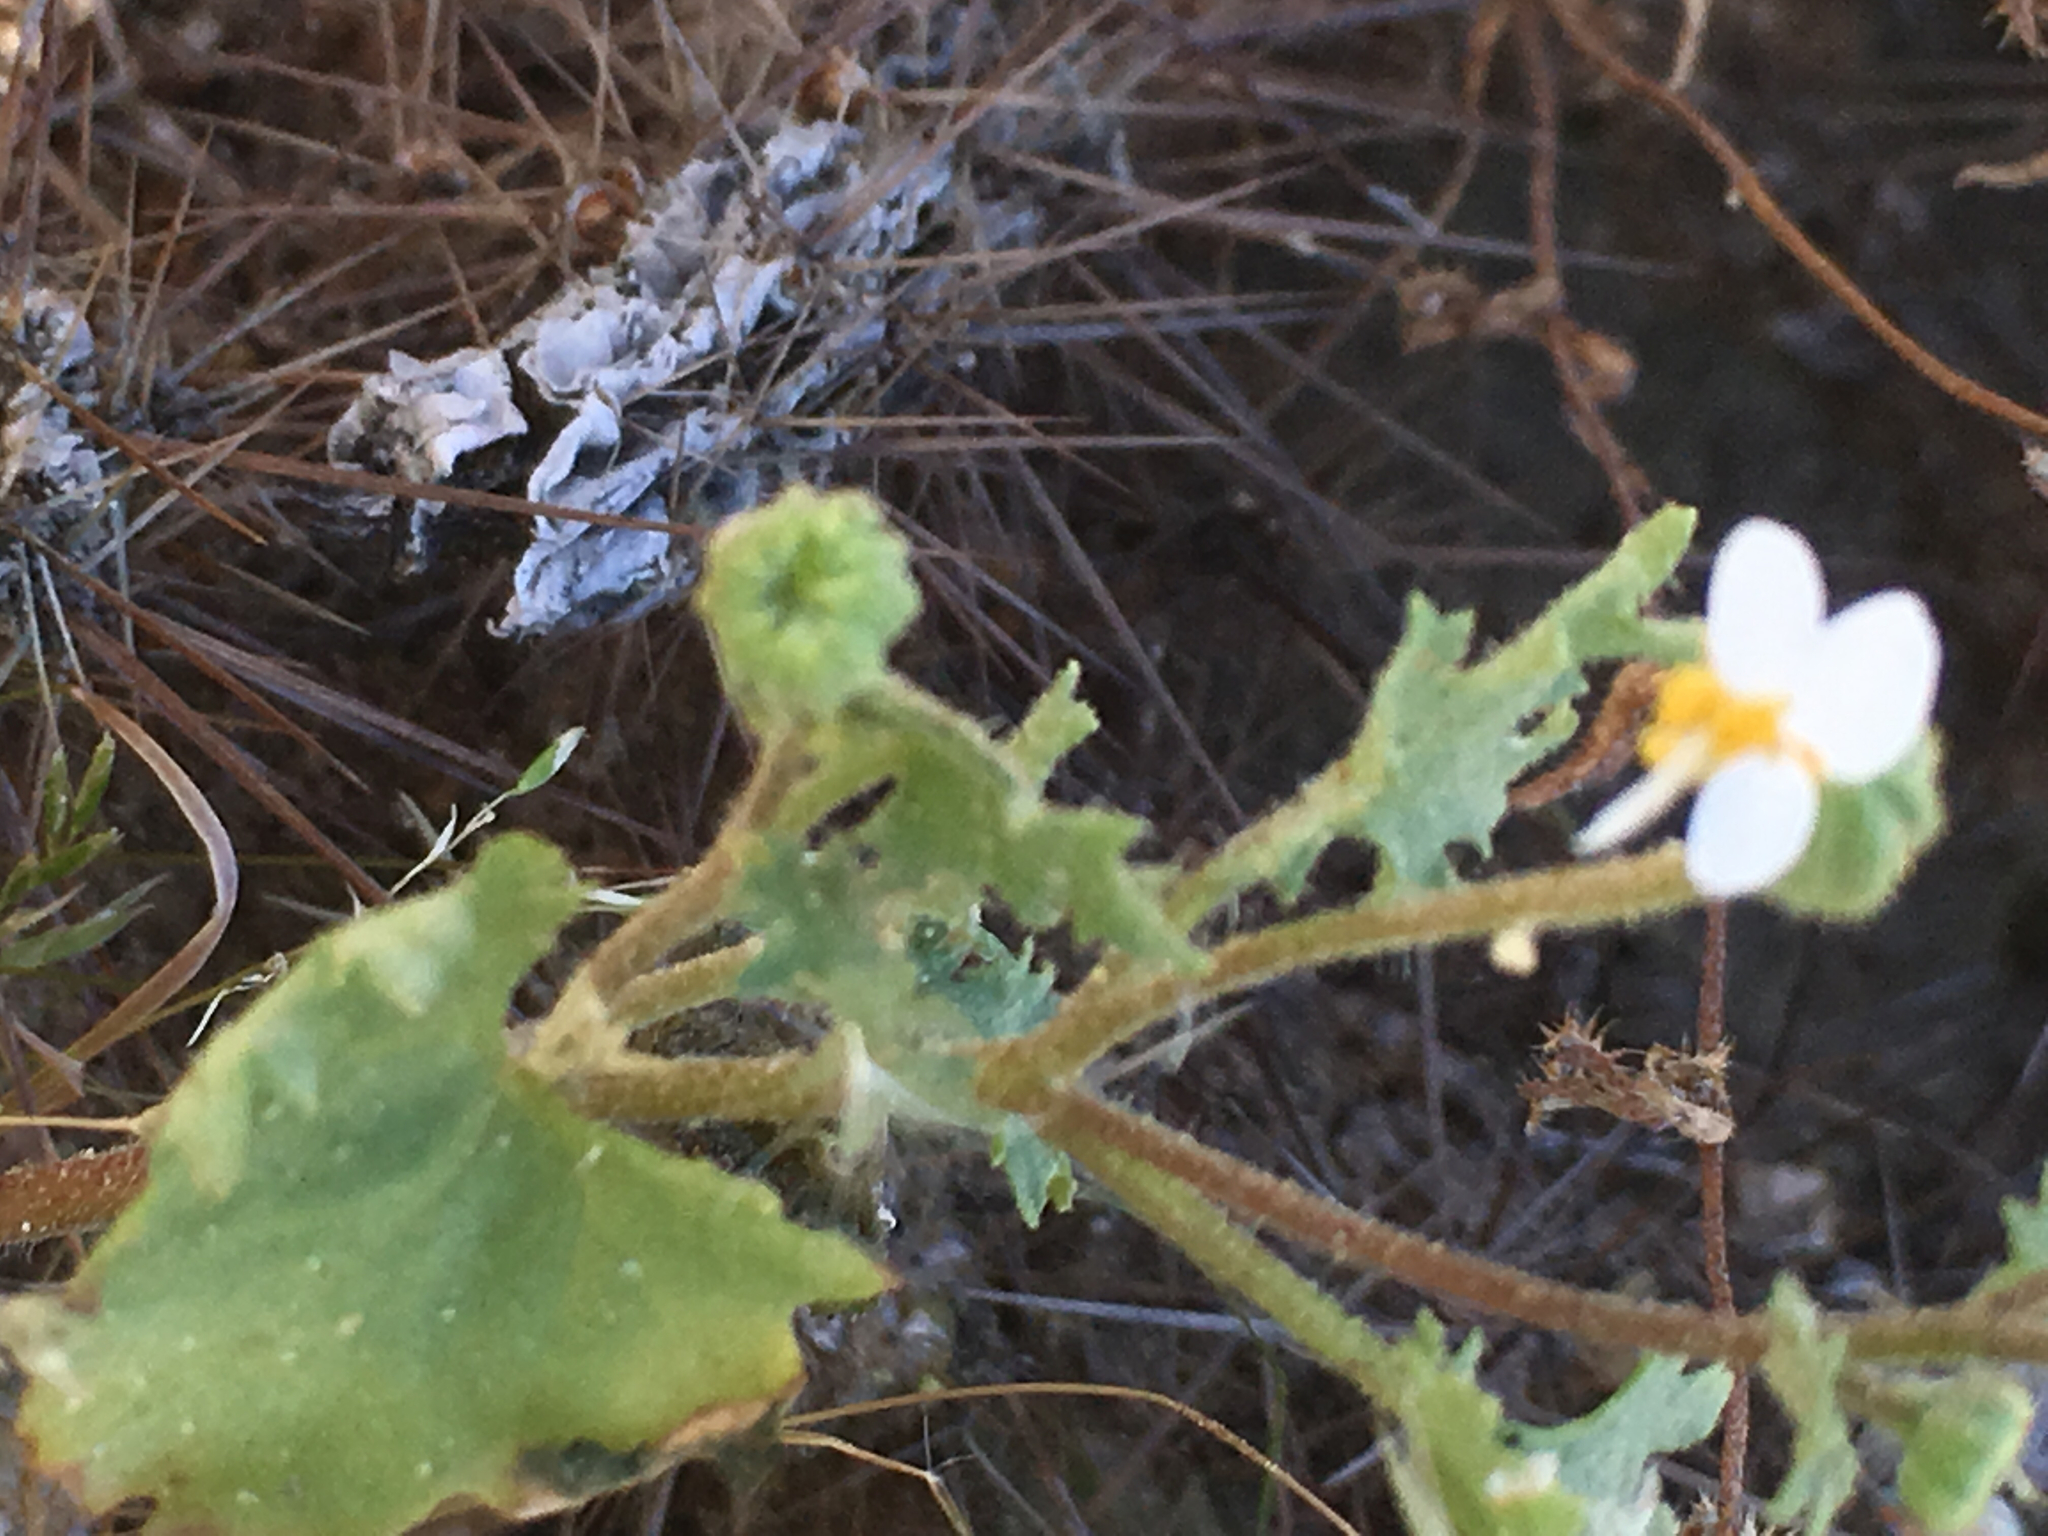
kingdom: Plantae
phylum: Tracheophyta
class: Magnoliopsida
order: Asterales
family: Asteraceae
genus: Laphamia
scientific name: Laphamia emoryi
